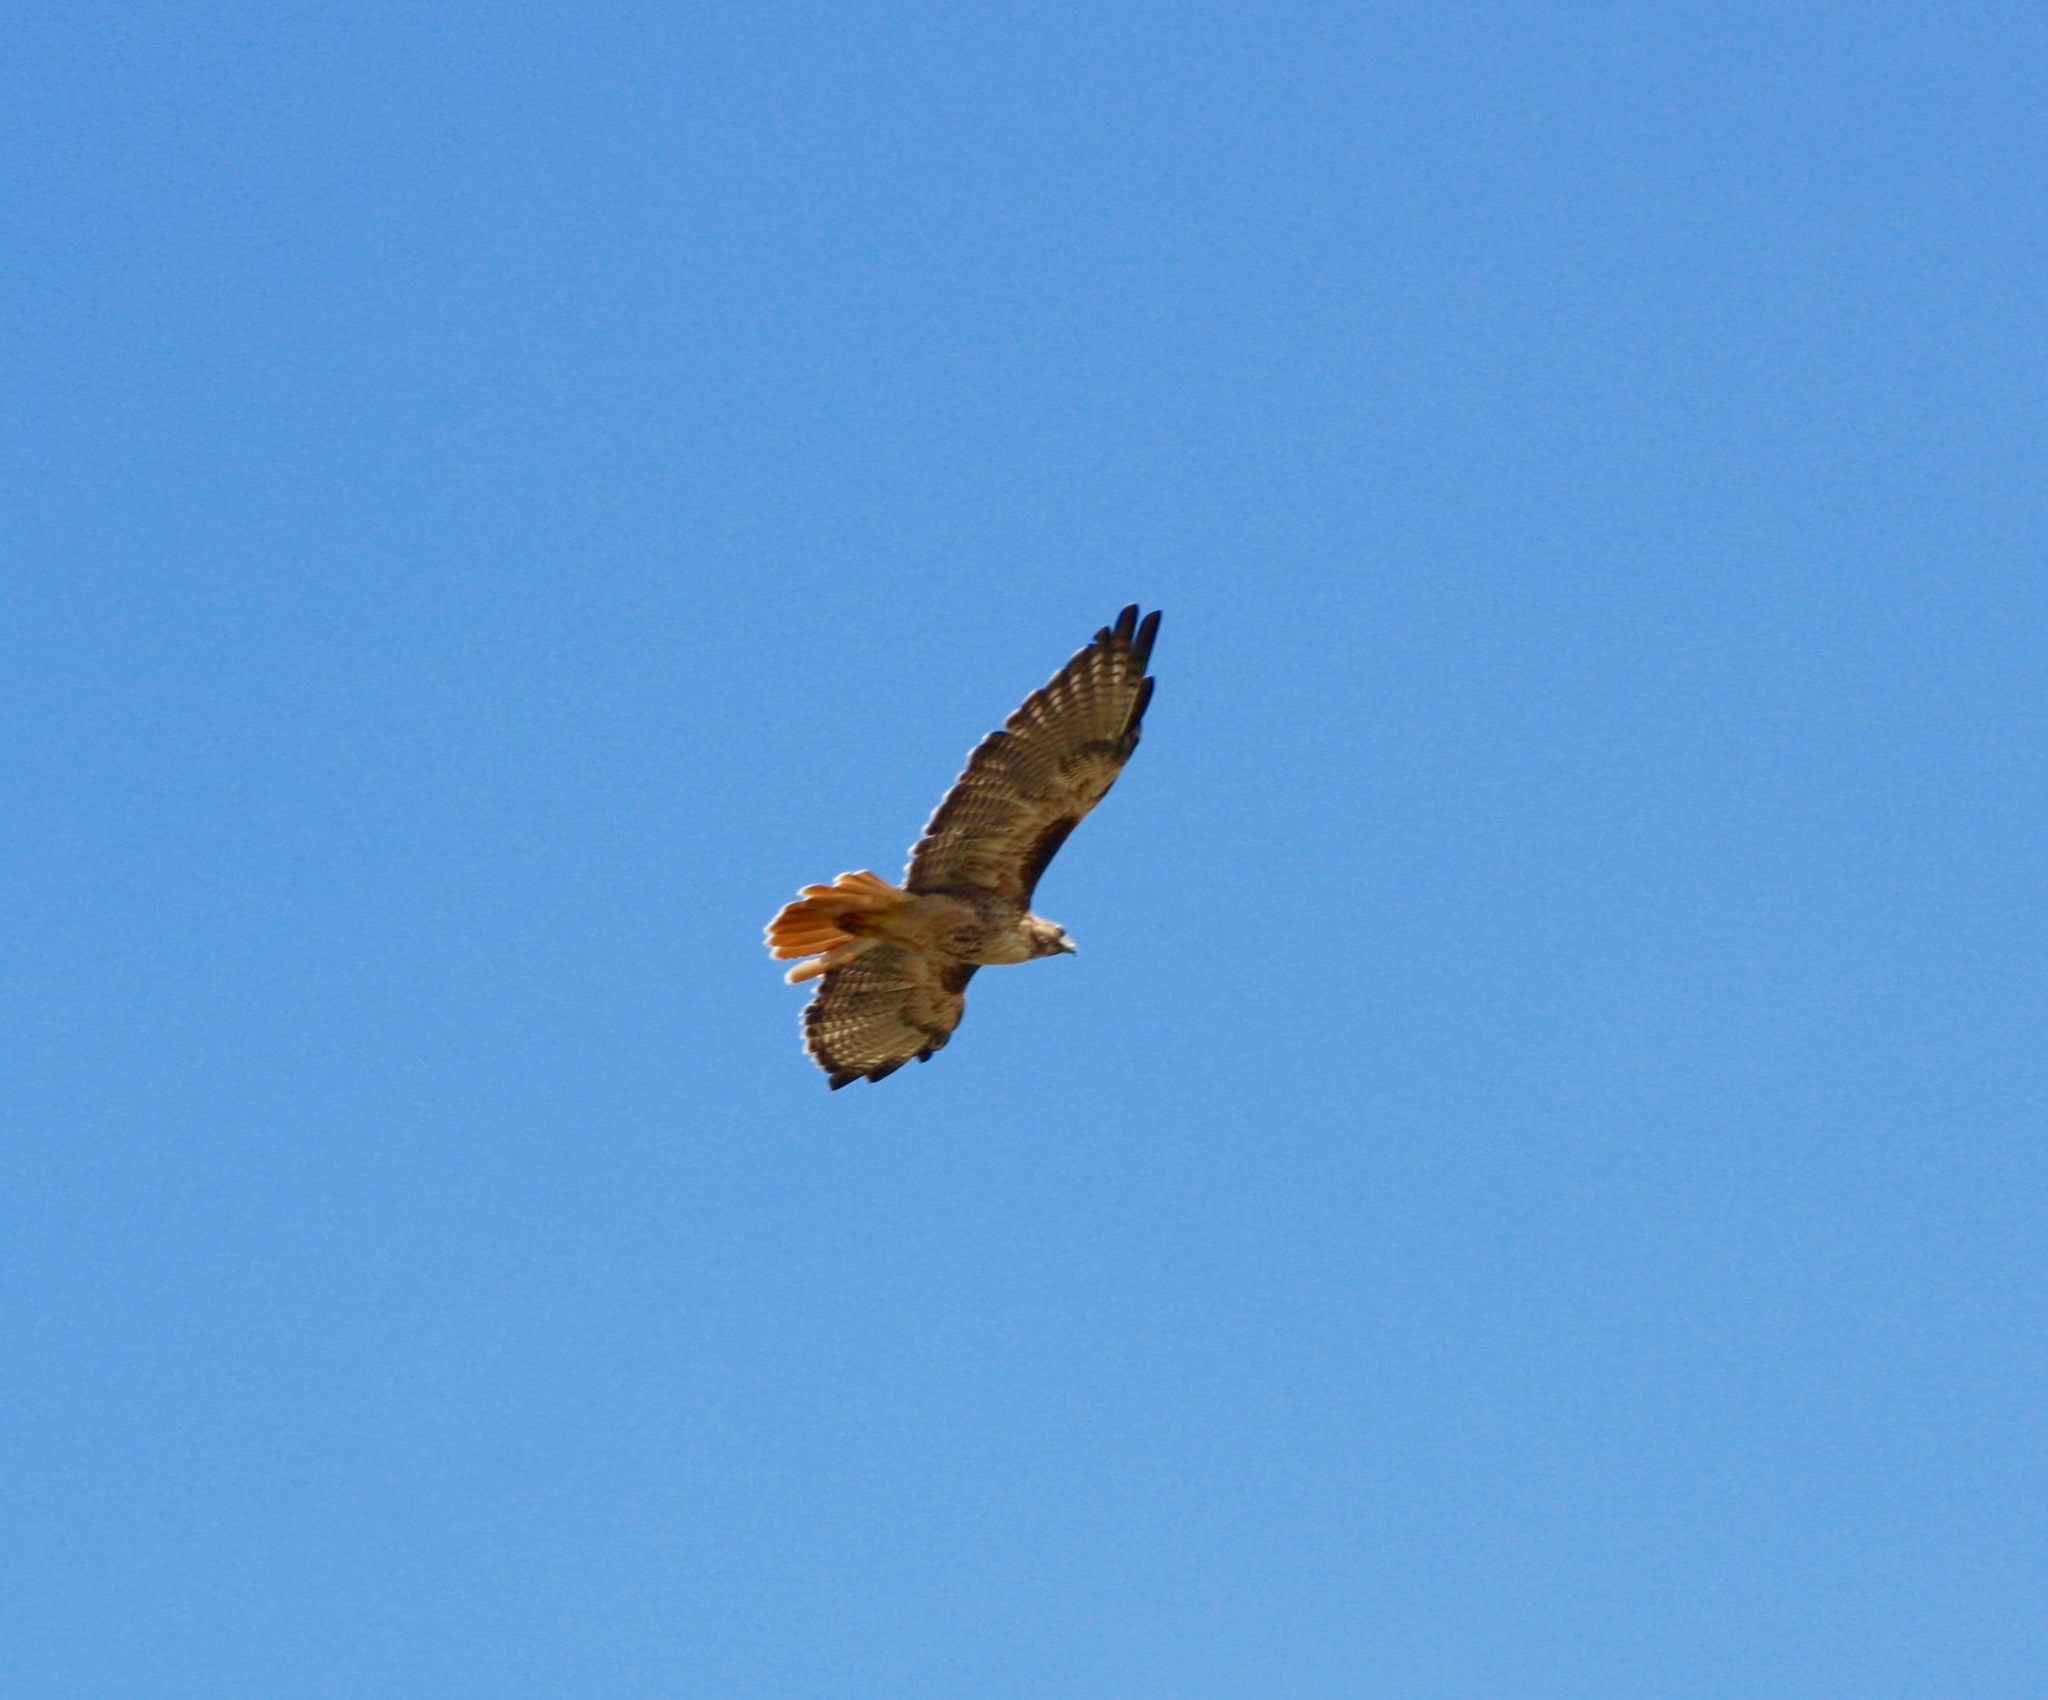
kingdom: Animalia
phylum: Chordata
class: Aves
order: Accipitriformes
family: Accipitridae
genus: Buteo
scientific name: Buteo jamaicensis
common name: Red-tailed hawk
